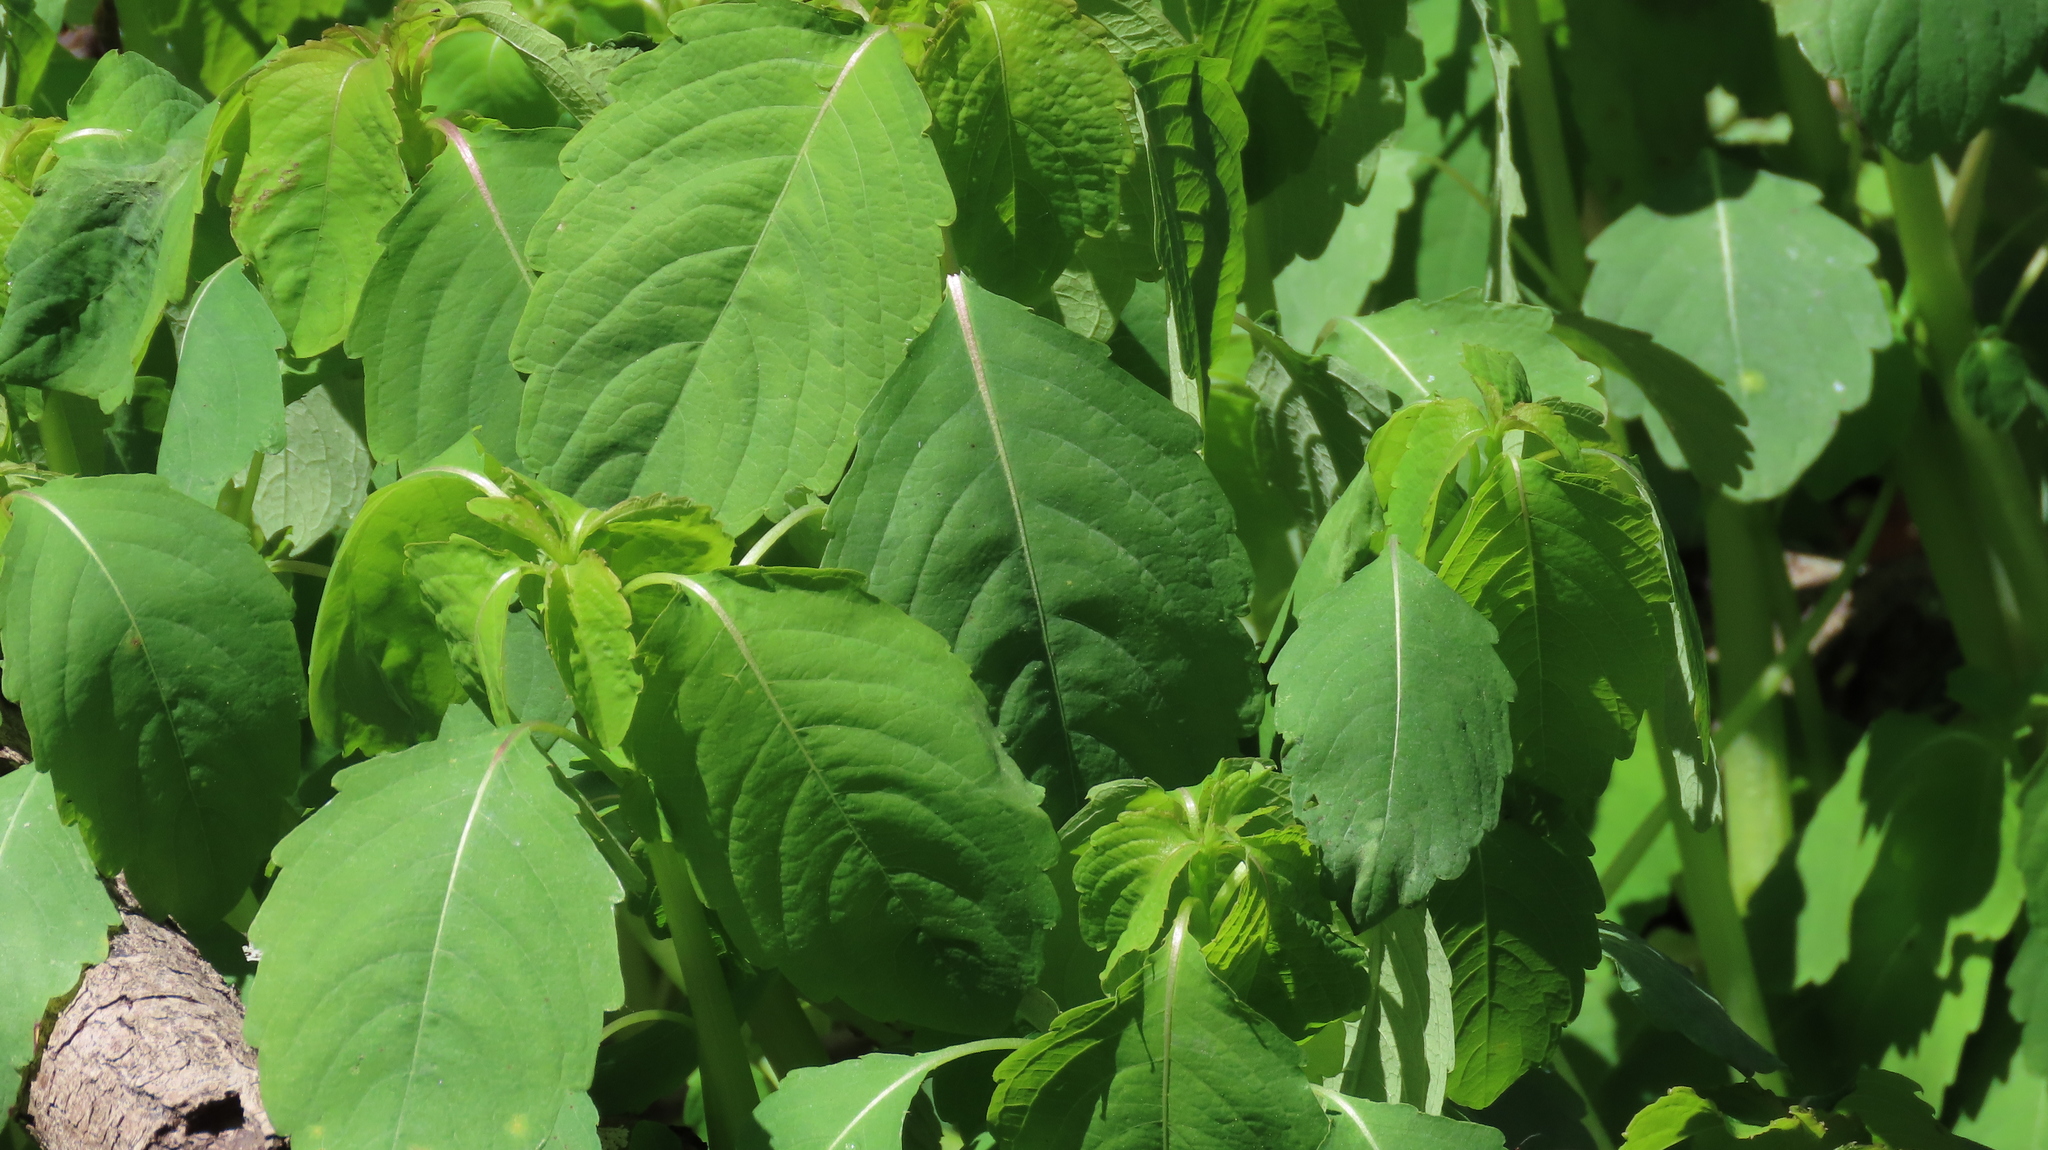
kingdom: Plantae
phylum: Tracheophyta
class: Magnoliopsida
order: Ericales
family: Balsaminaceae
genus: Impatiens
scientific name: Impatiens capensis
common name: Orange balsam
